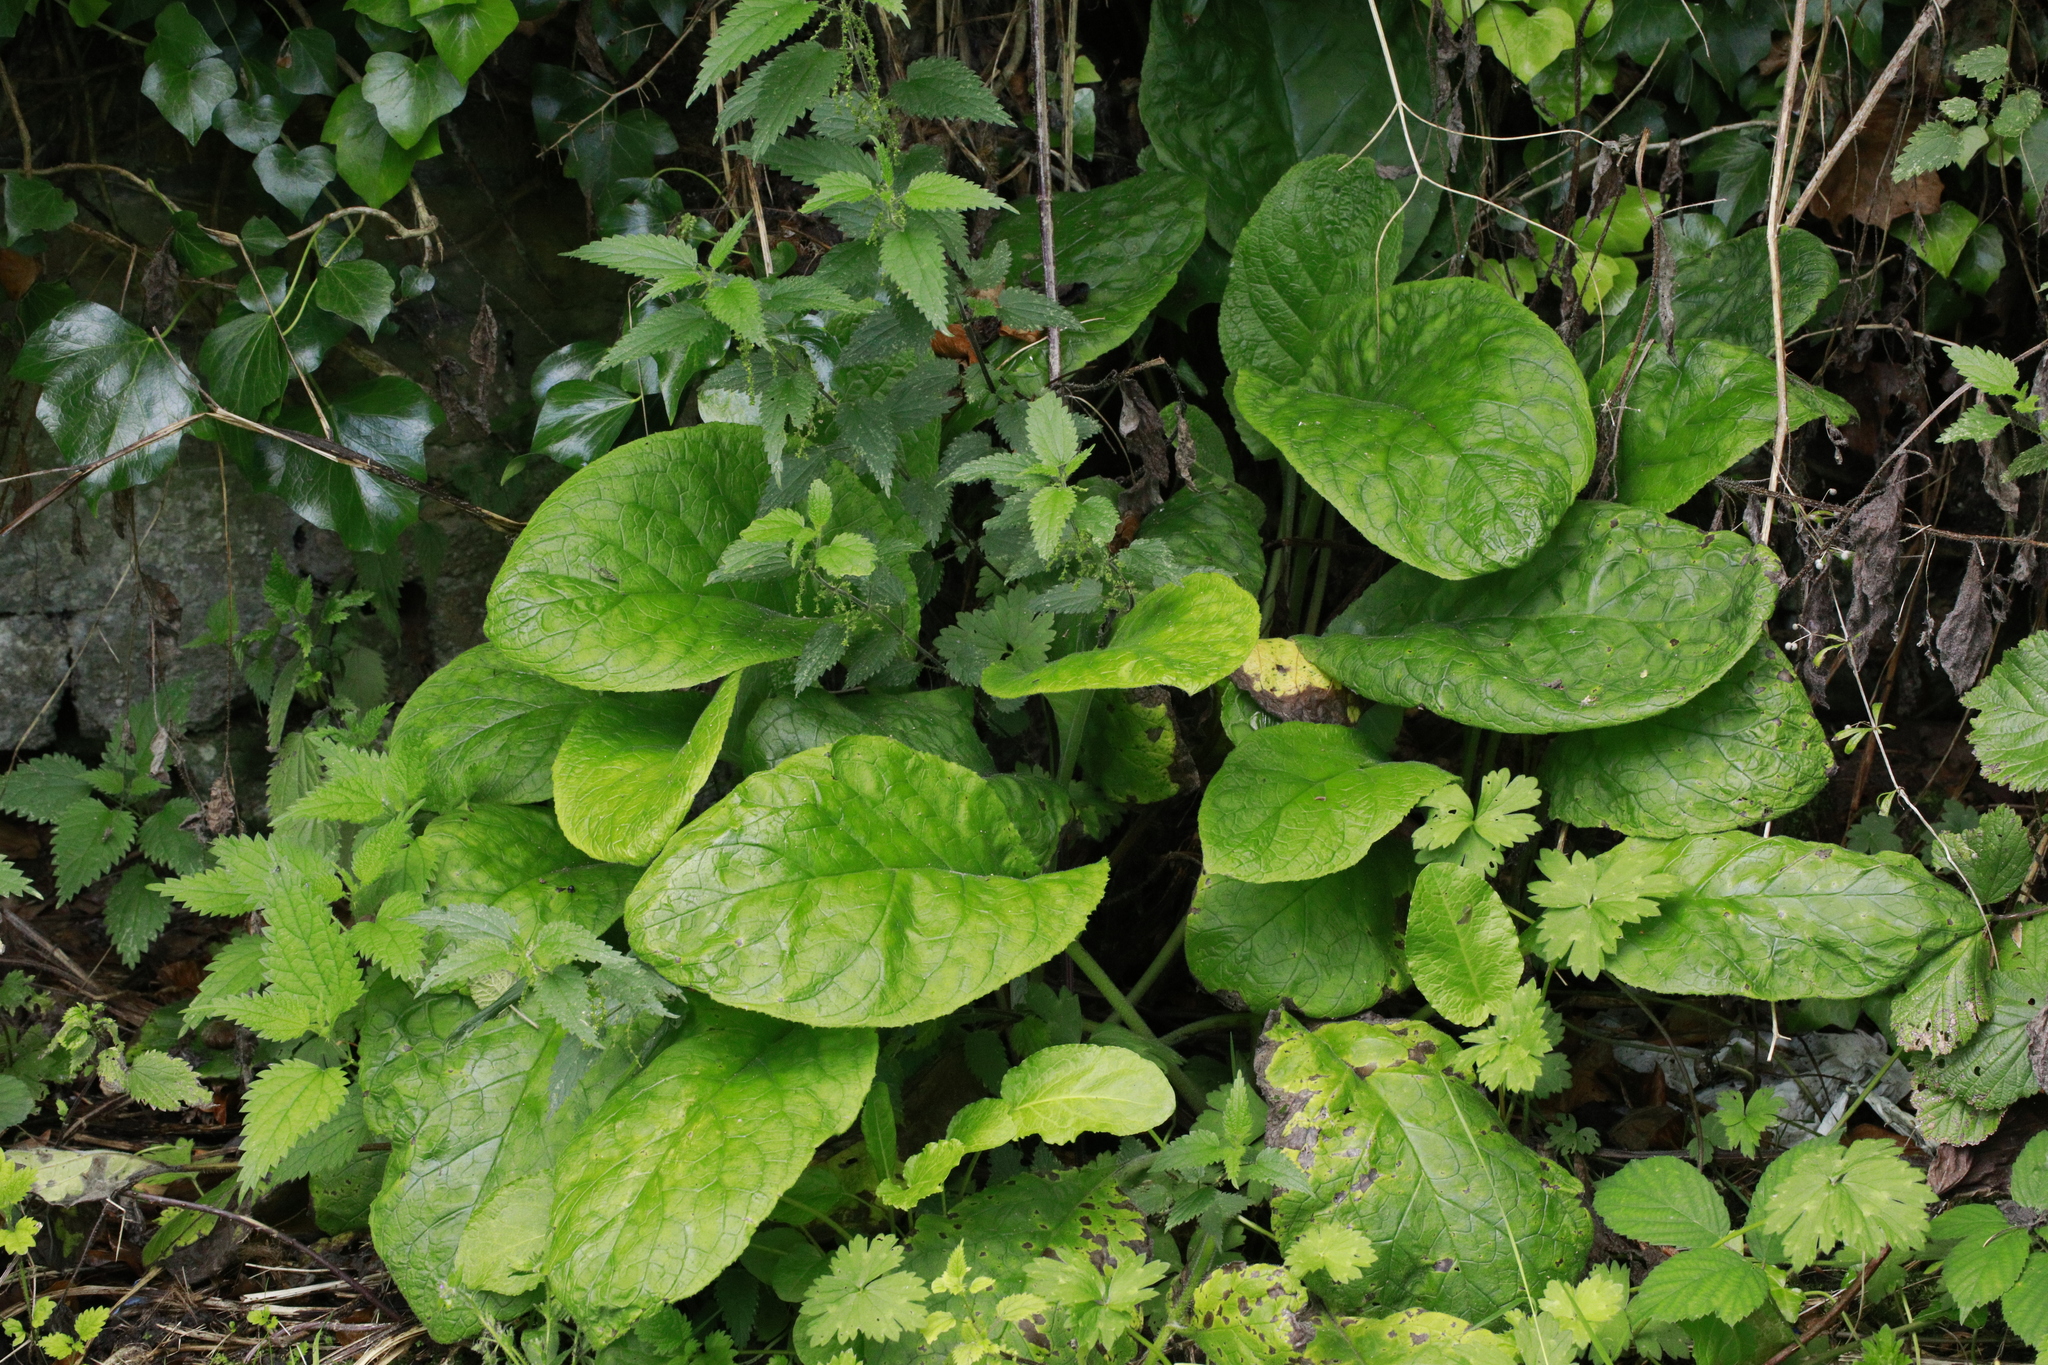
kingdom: Plantae
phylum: Tracheophyta
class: Magnoliopsida
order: Boraginales
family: Boraginaceae
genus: Pentaglottis
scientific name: Pentaglottis sempervirens
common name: Green alkanet
